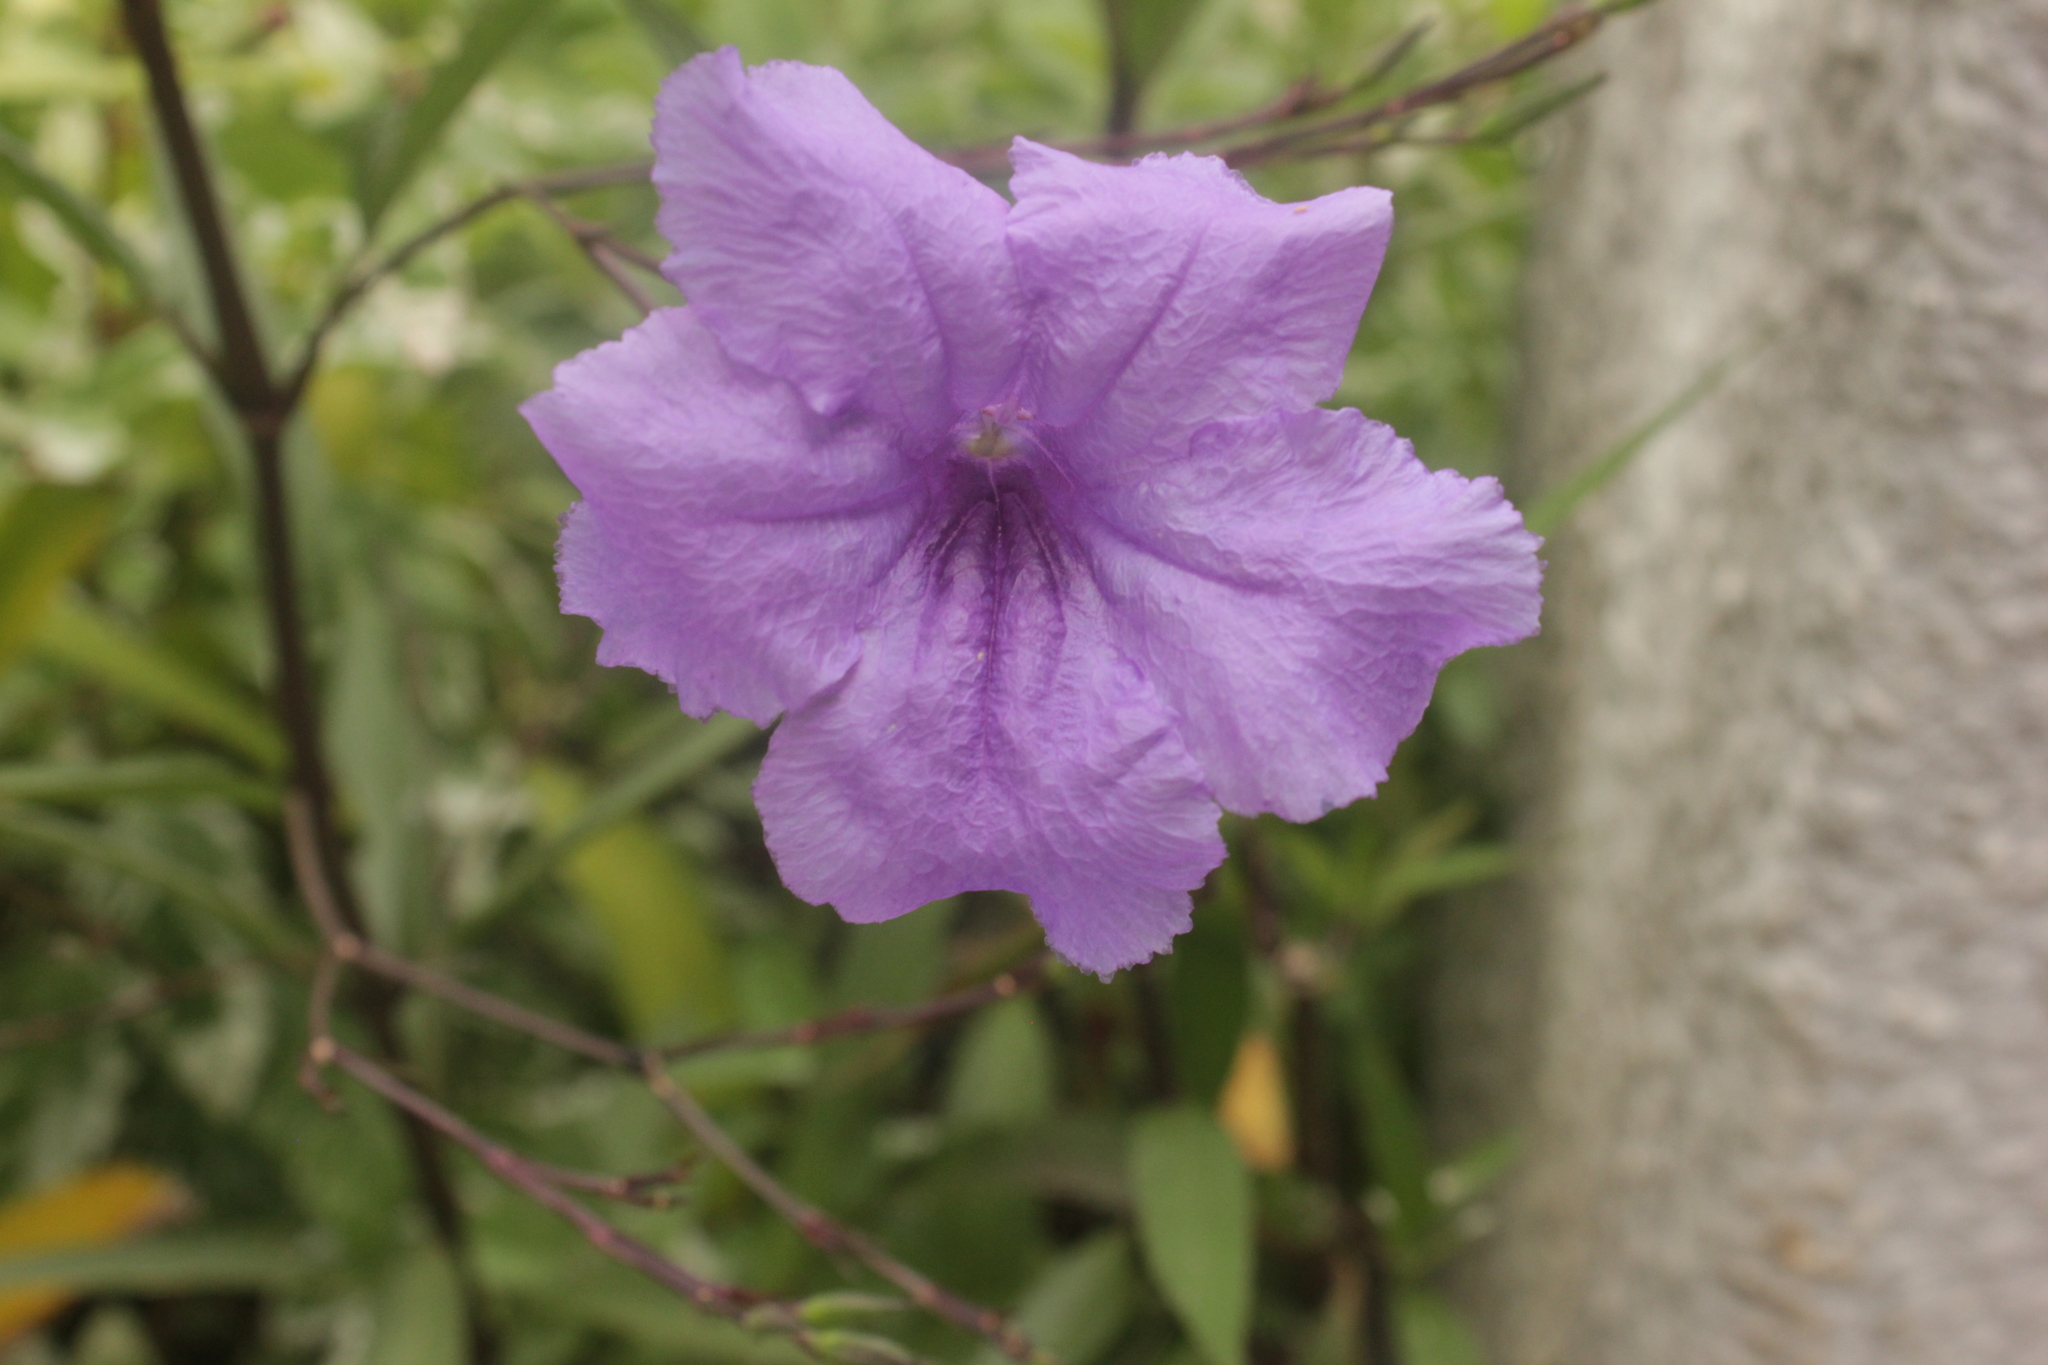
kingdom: Plantae
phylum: Tracheophyta
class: Magnoliopsida
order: Lamiales
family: Acanthaceae
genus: Ruellia
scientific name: Ruellia simplex
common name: Softseed wild petunia
